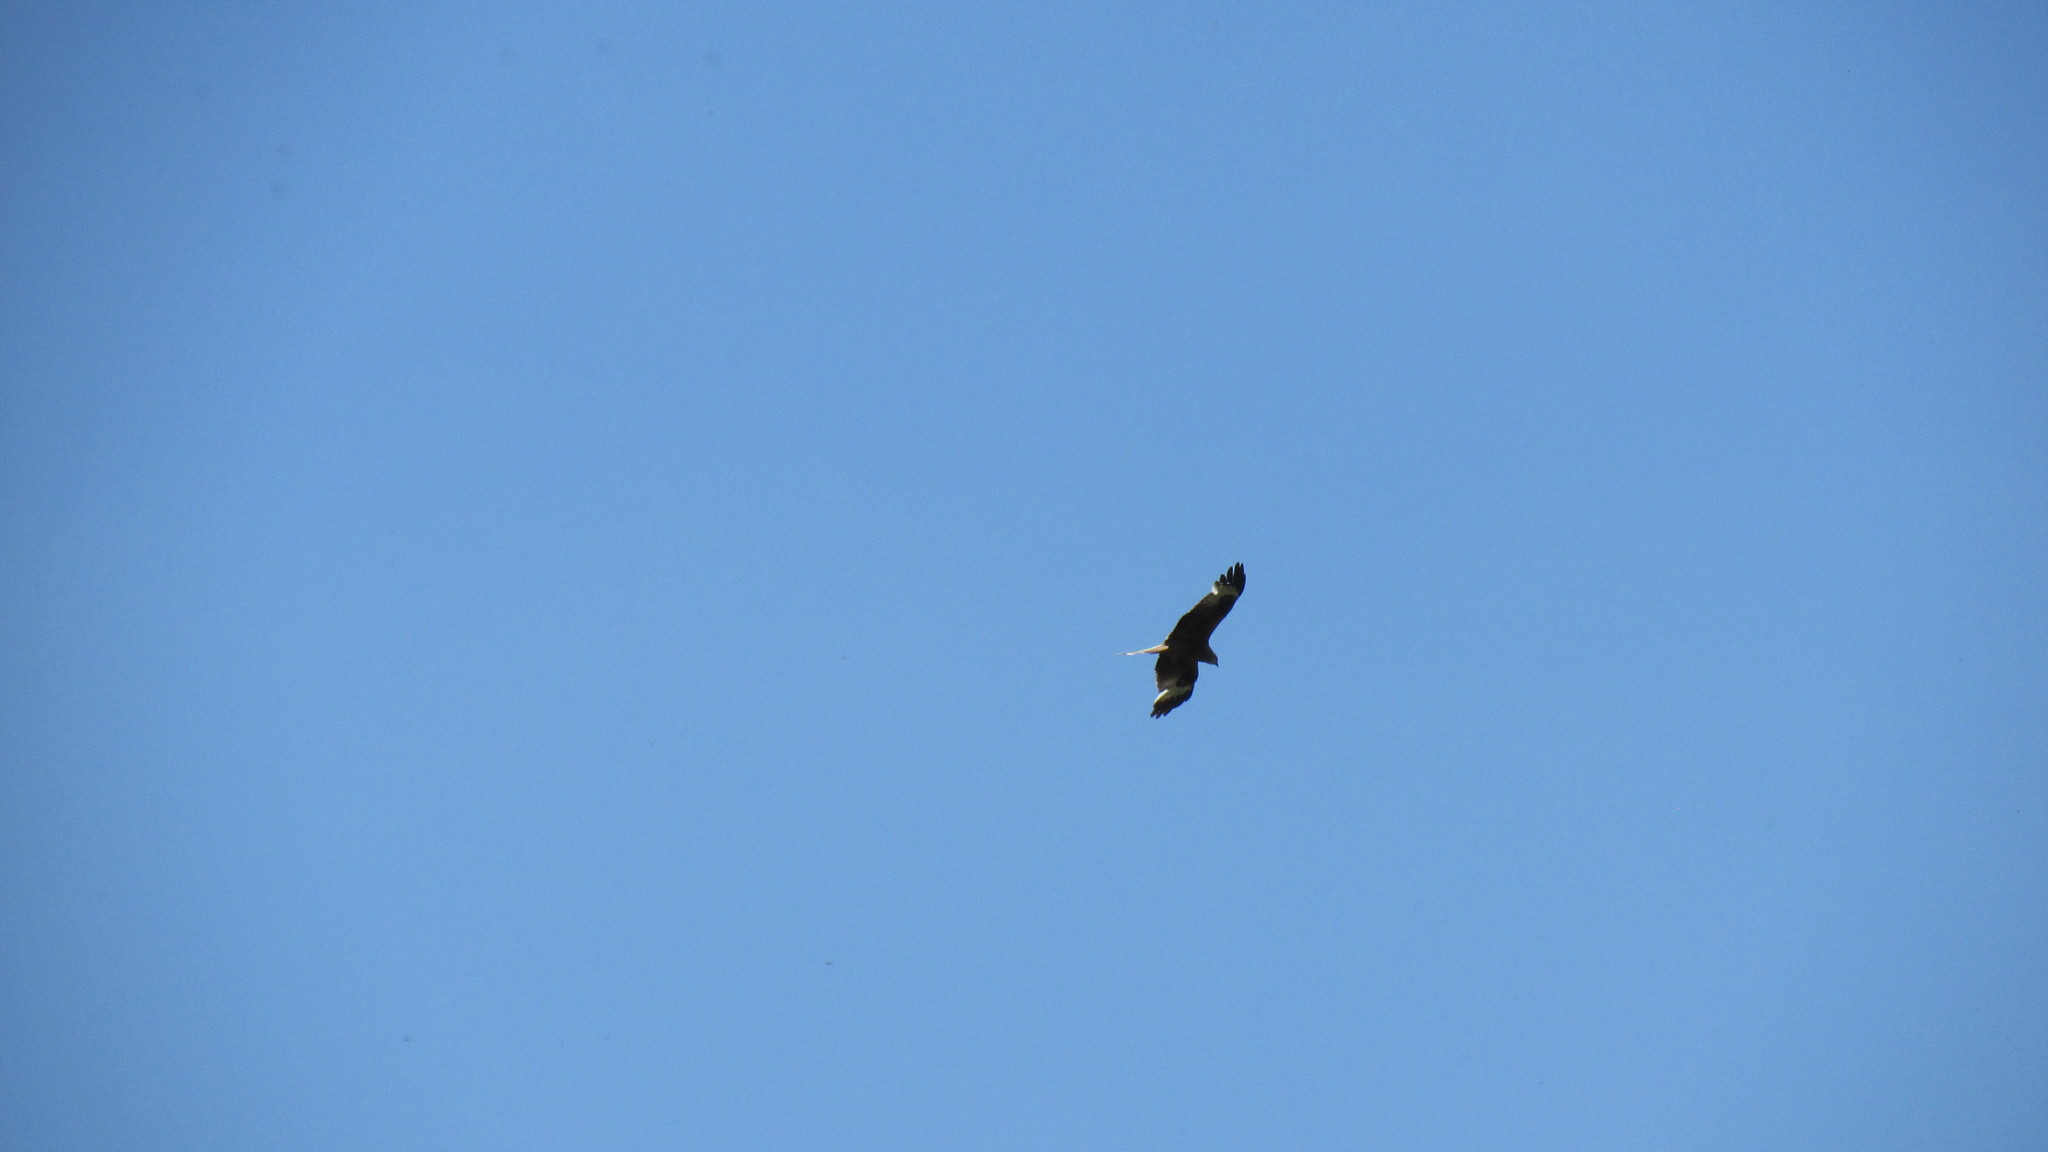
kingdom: Animalia
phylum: Chordata
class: Aves
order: Accipitriformes
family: Accipitridae
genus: Milvus
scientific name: Milvus milvus
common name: Red kite
